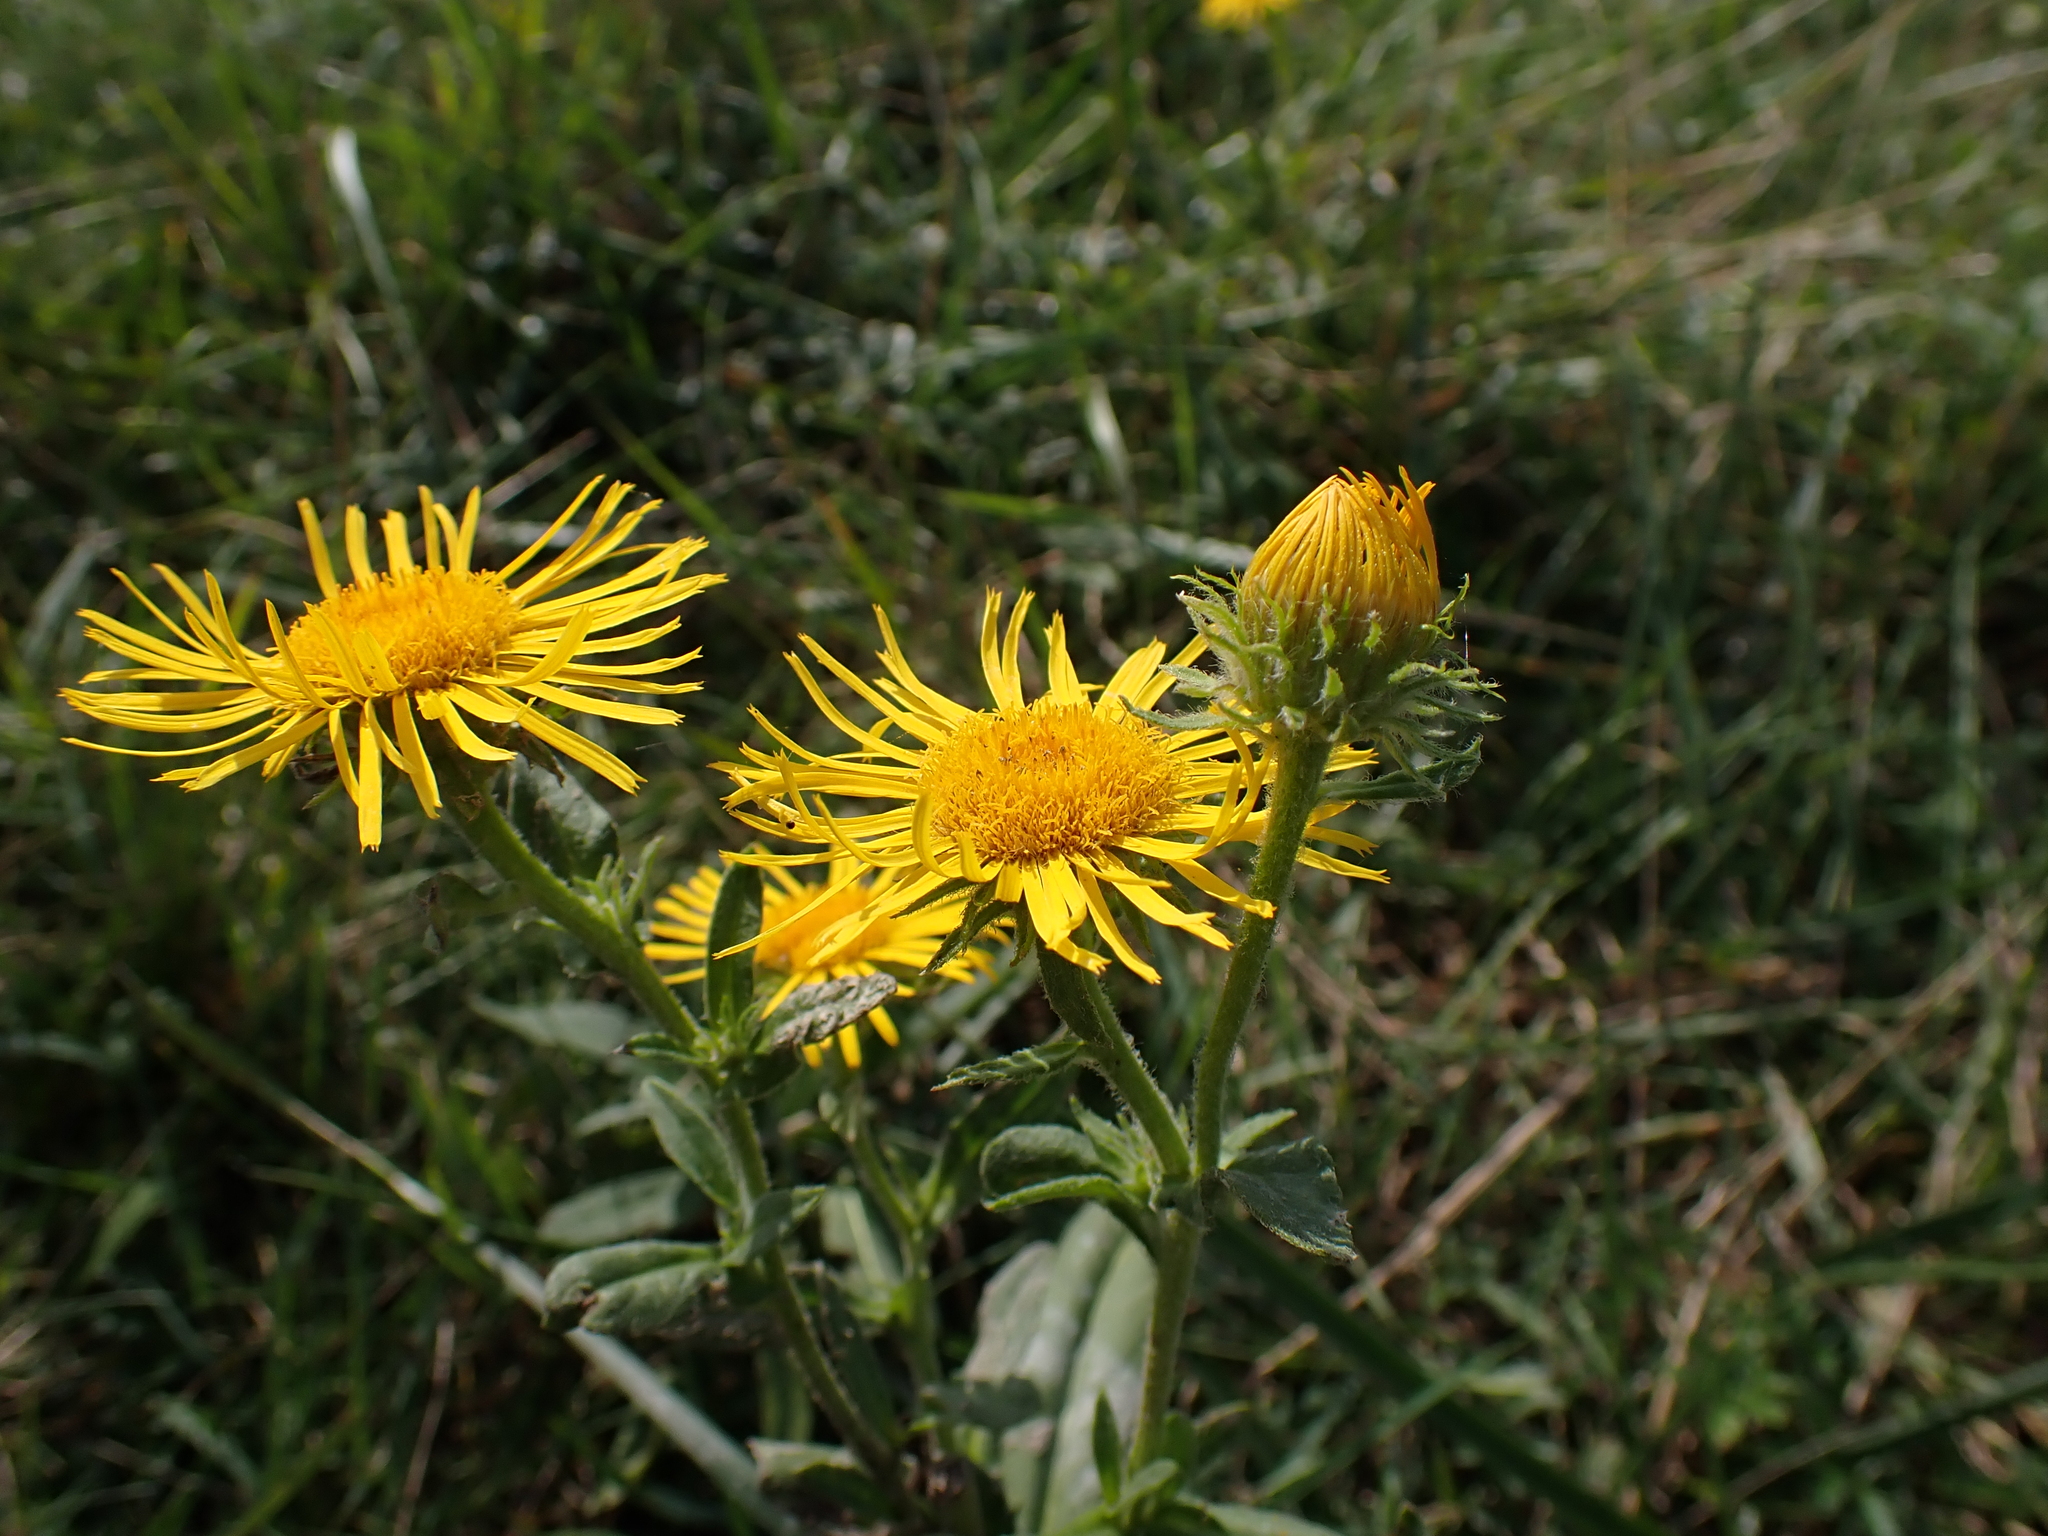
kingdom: Plantae
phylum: Tracheophyta
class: Magnoliopsida
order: Asterales
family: Asteraceae
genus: Pentanema
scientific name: Pentanema britannicum
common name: British elecampane
